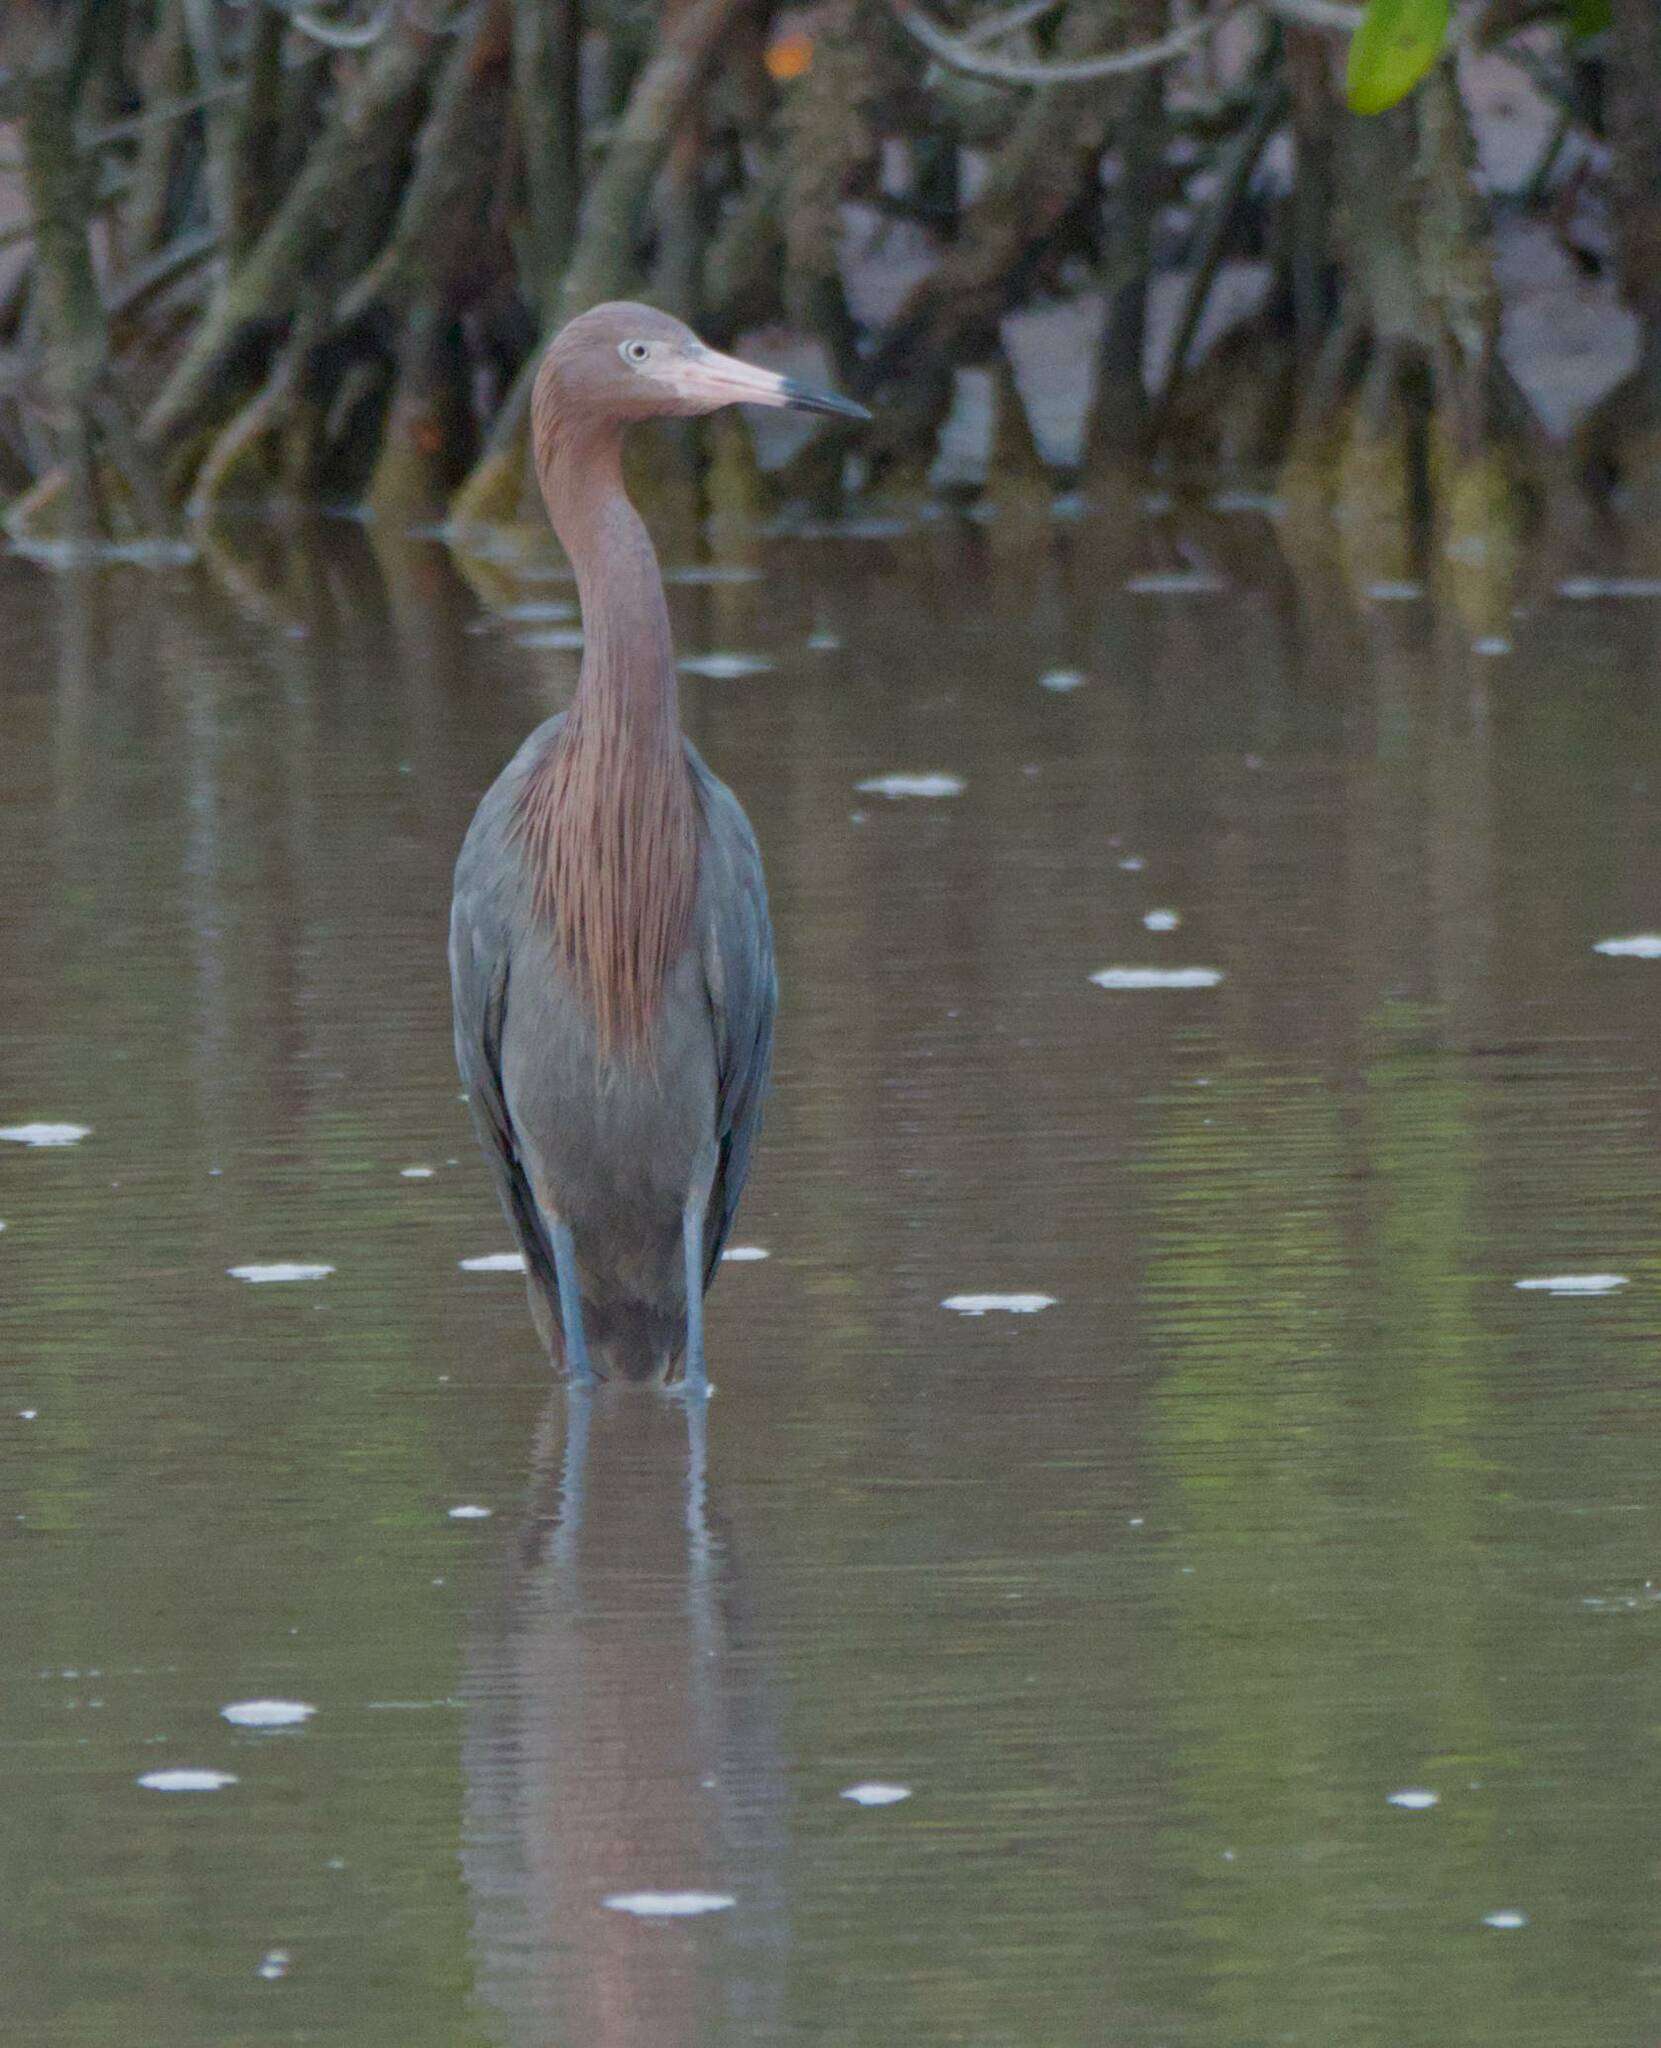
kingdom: Animalia
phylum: Chordata
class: Aves
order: Pelecaniformes
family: Ardeidae
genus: Egretta
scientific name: Egretta rufescens
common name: Reddish egret
